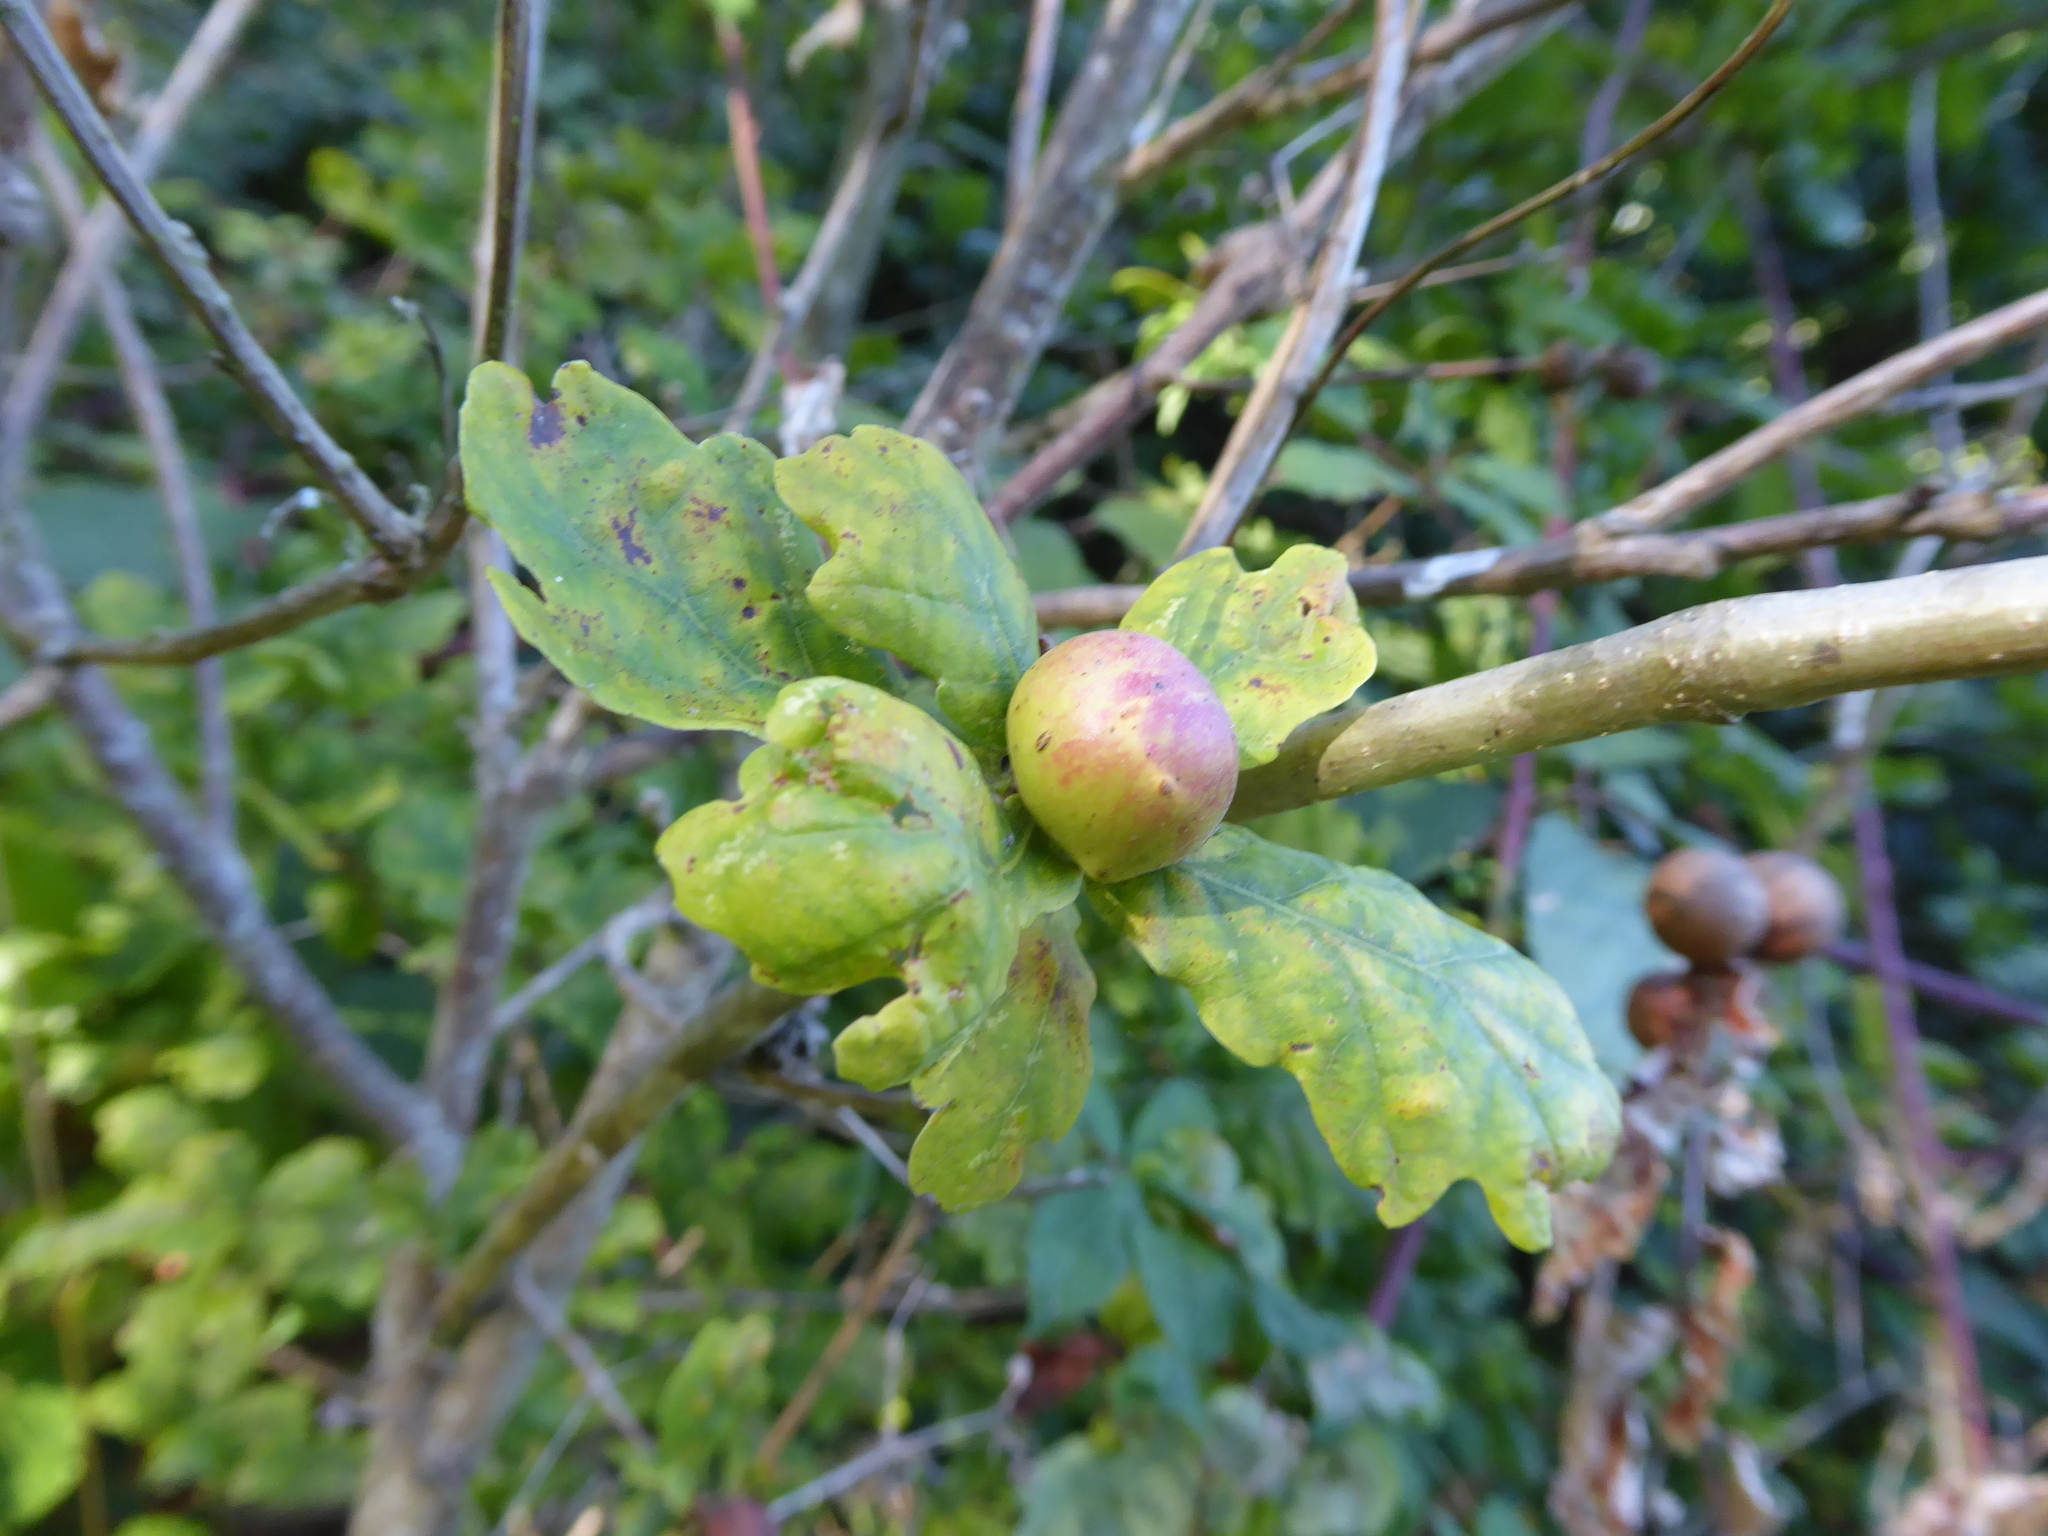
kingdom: Animalia
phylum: Arthropoda
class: Insecta
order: Hymenoptera
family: Cynipidae
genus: Andricus
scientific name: Andricus kollari
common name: Marble gall
